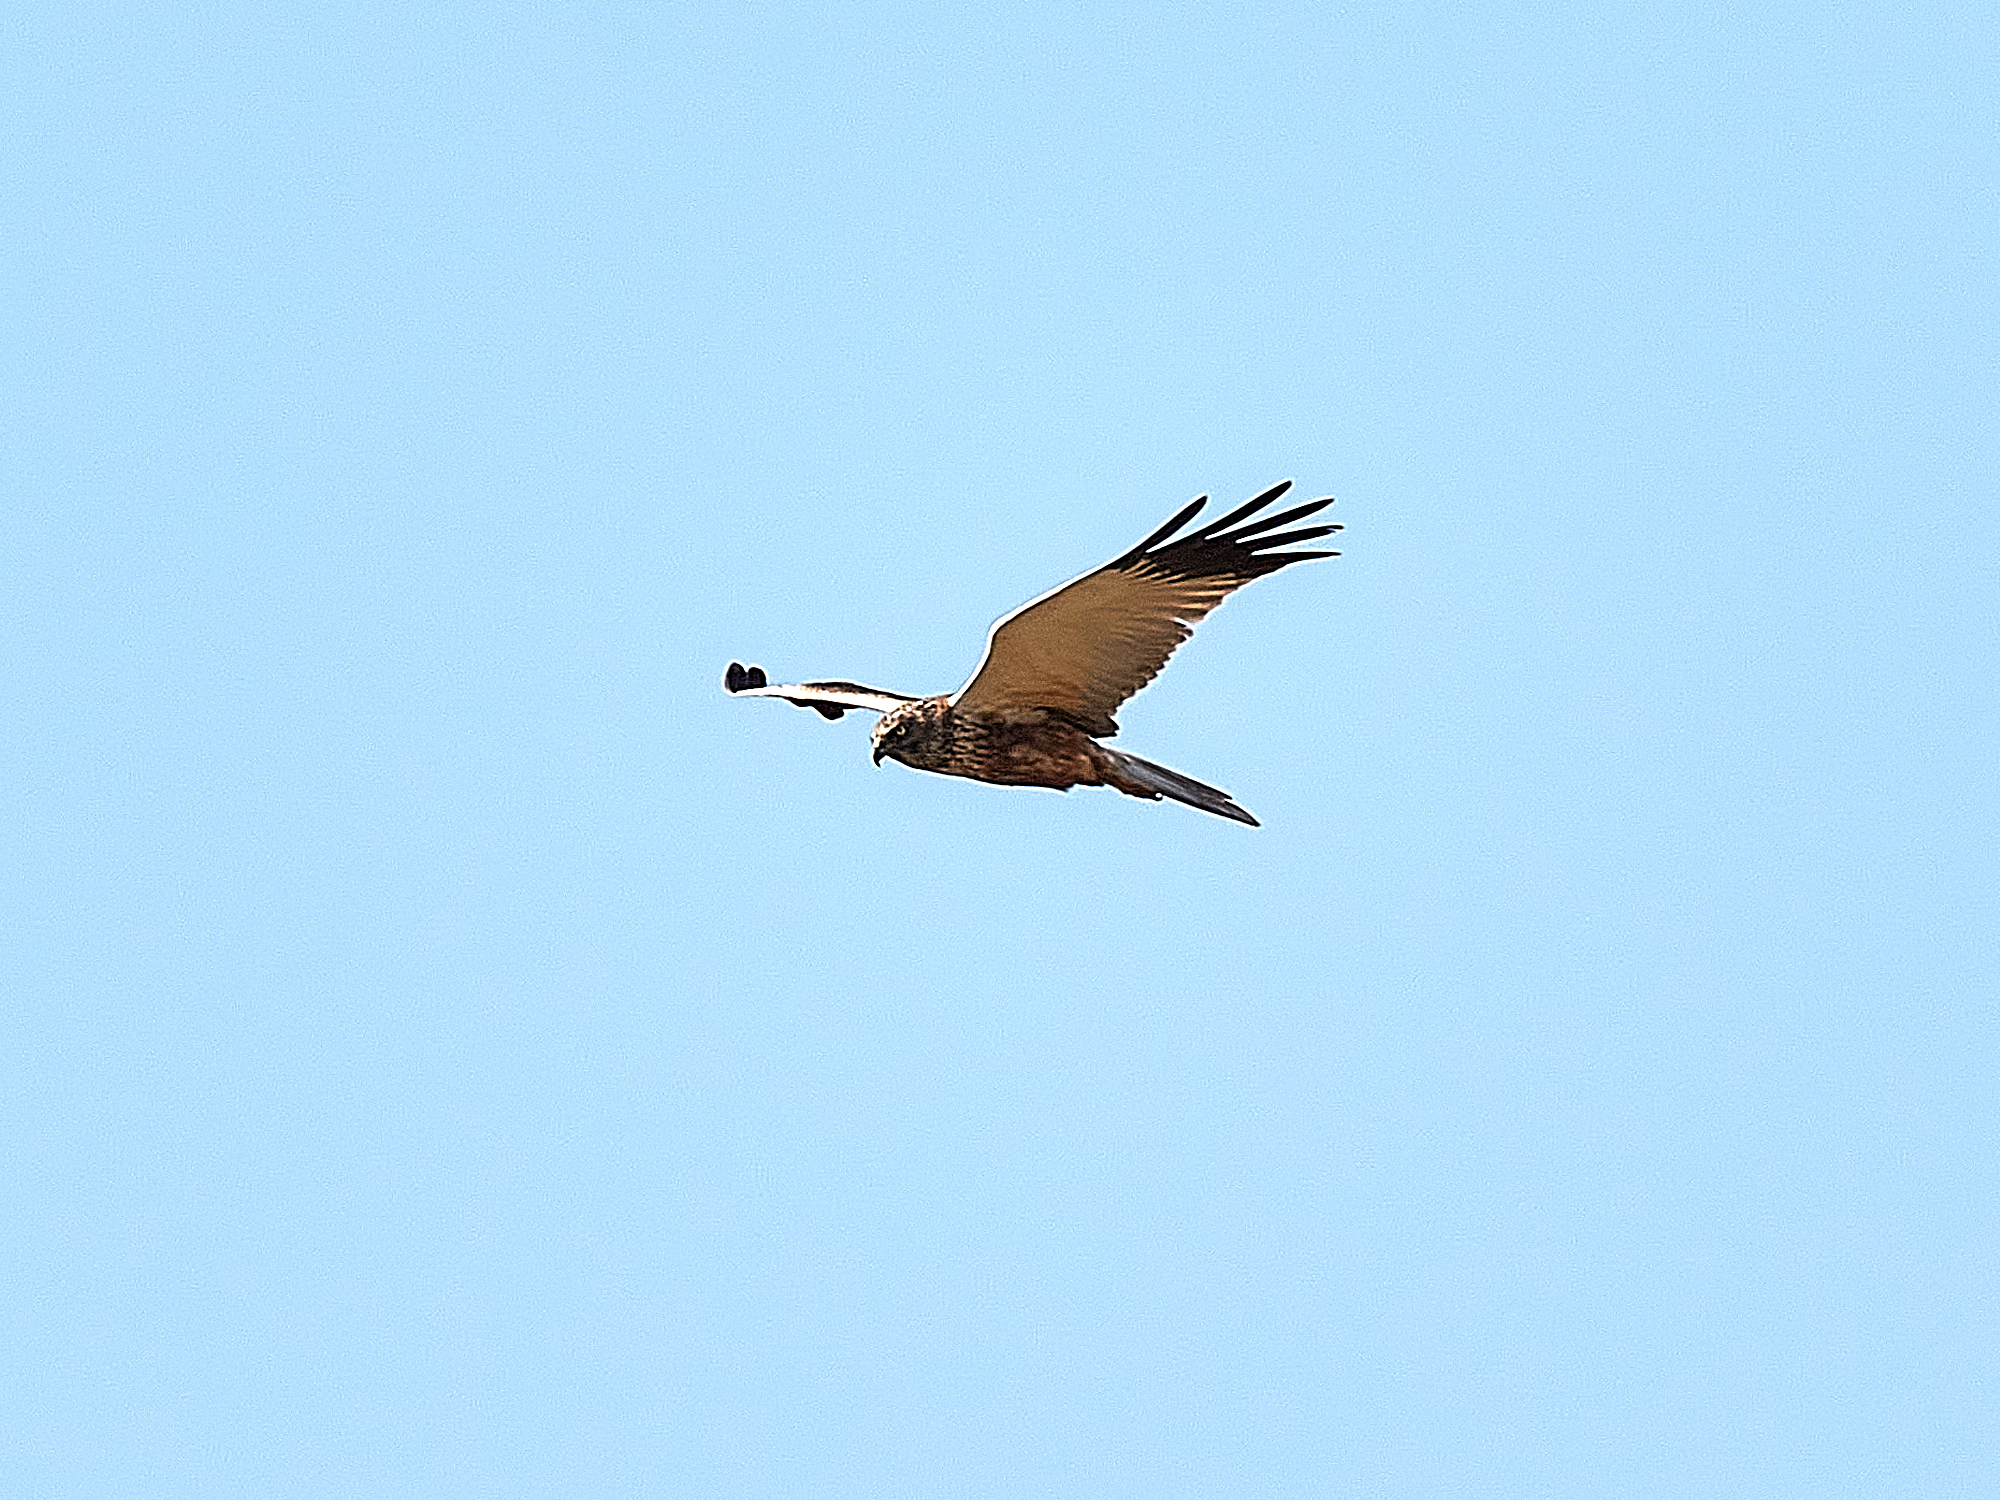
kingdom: Animalia
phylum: Chordata
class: Aves
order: Accipitriformes
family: Accipitridae
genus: Circus
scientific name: Circus aeruginosus
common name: Western marsh harrier
